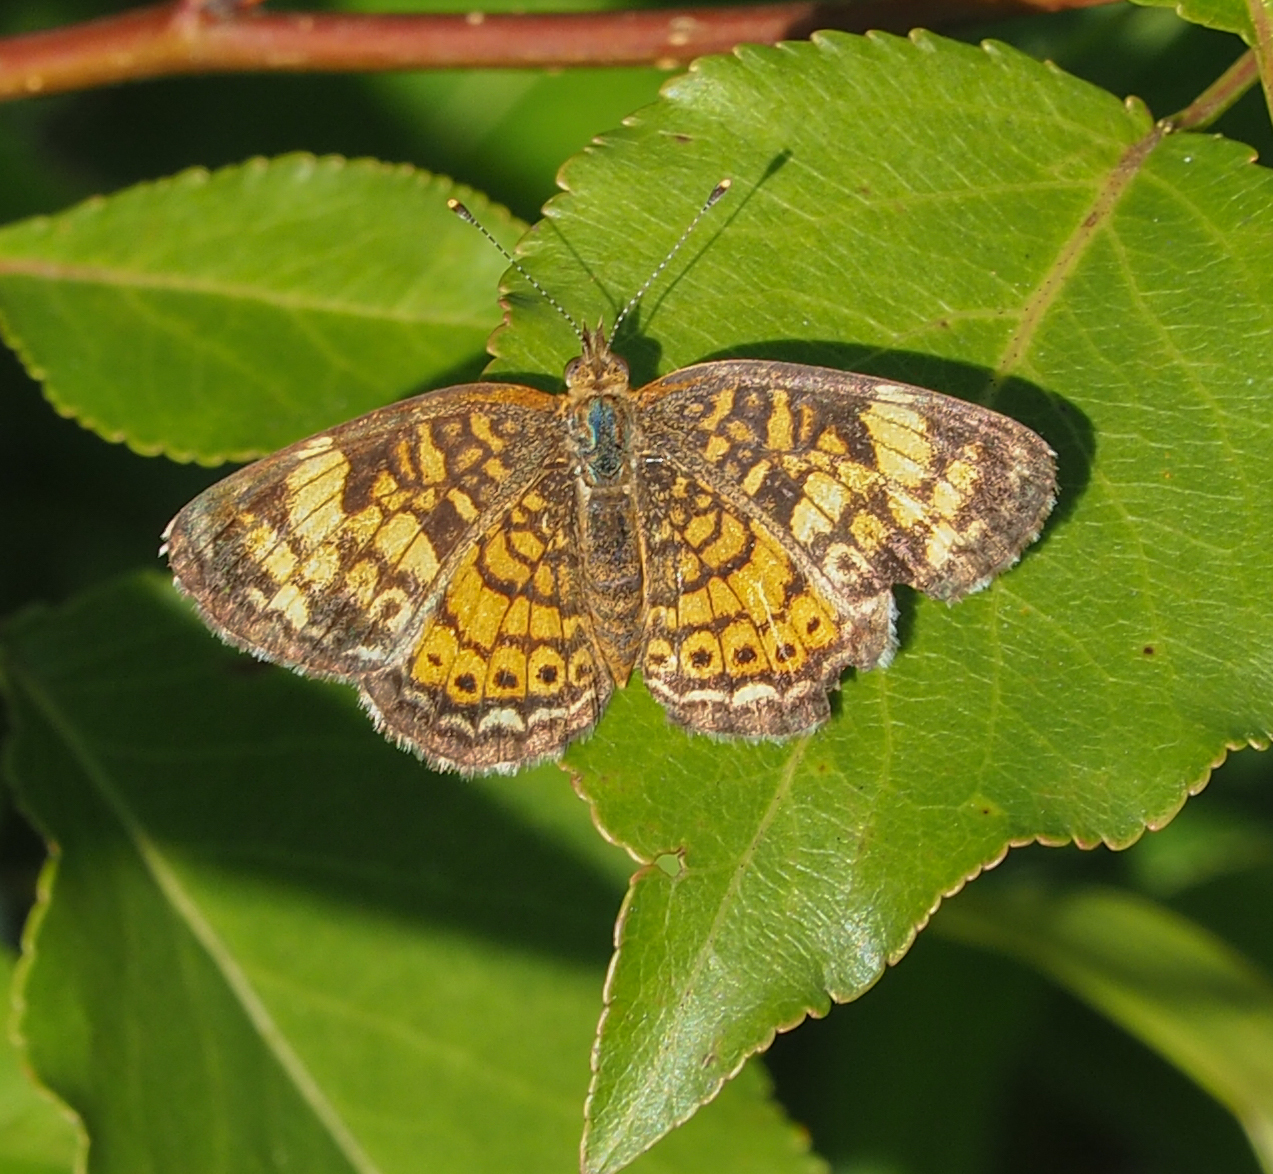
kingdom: Animalia
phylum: Arthropoda
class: Insecta
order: Lepidoptera
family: Nymphalidae
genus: Phyciodes
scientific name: Phyciodes tharos
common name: Pearl crescent
